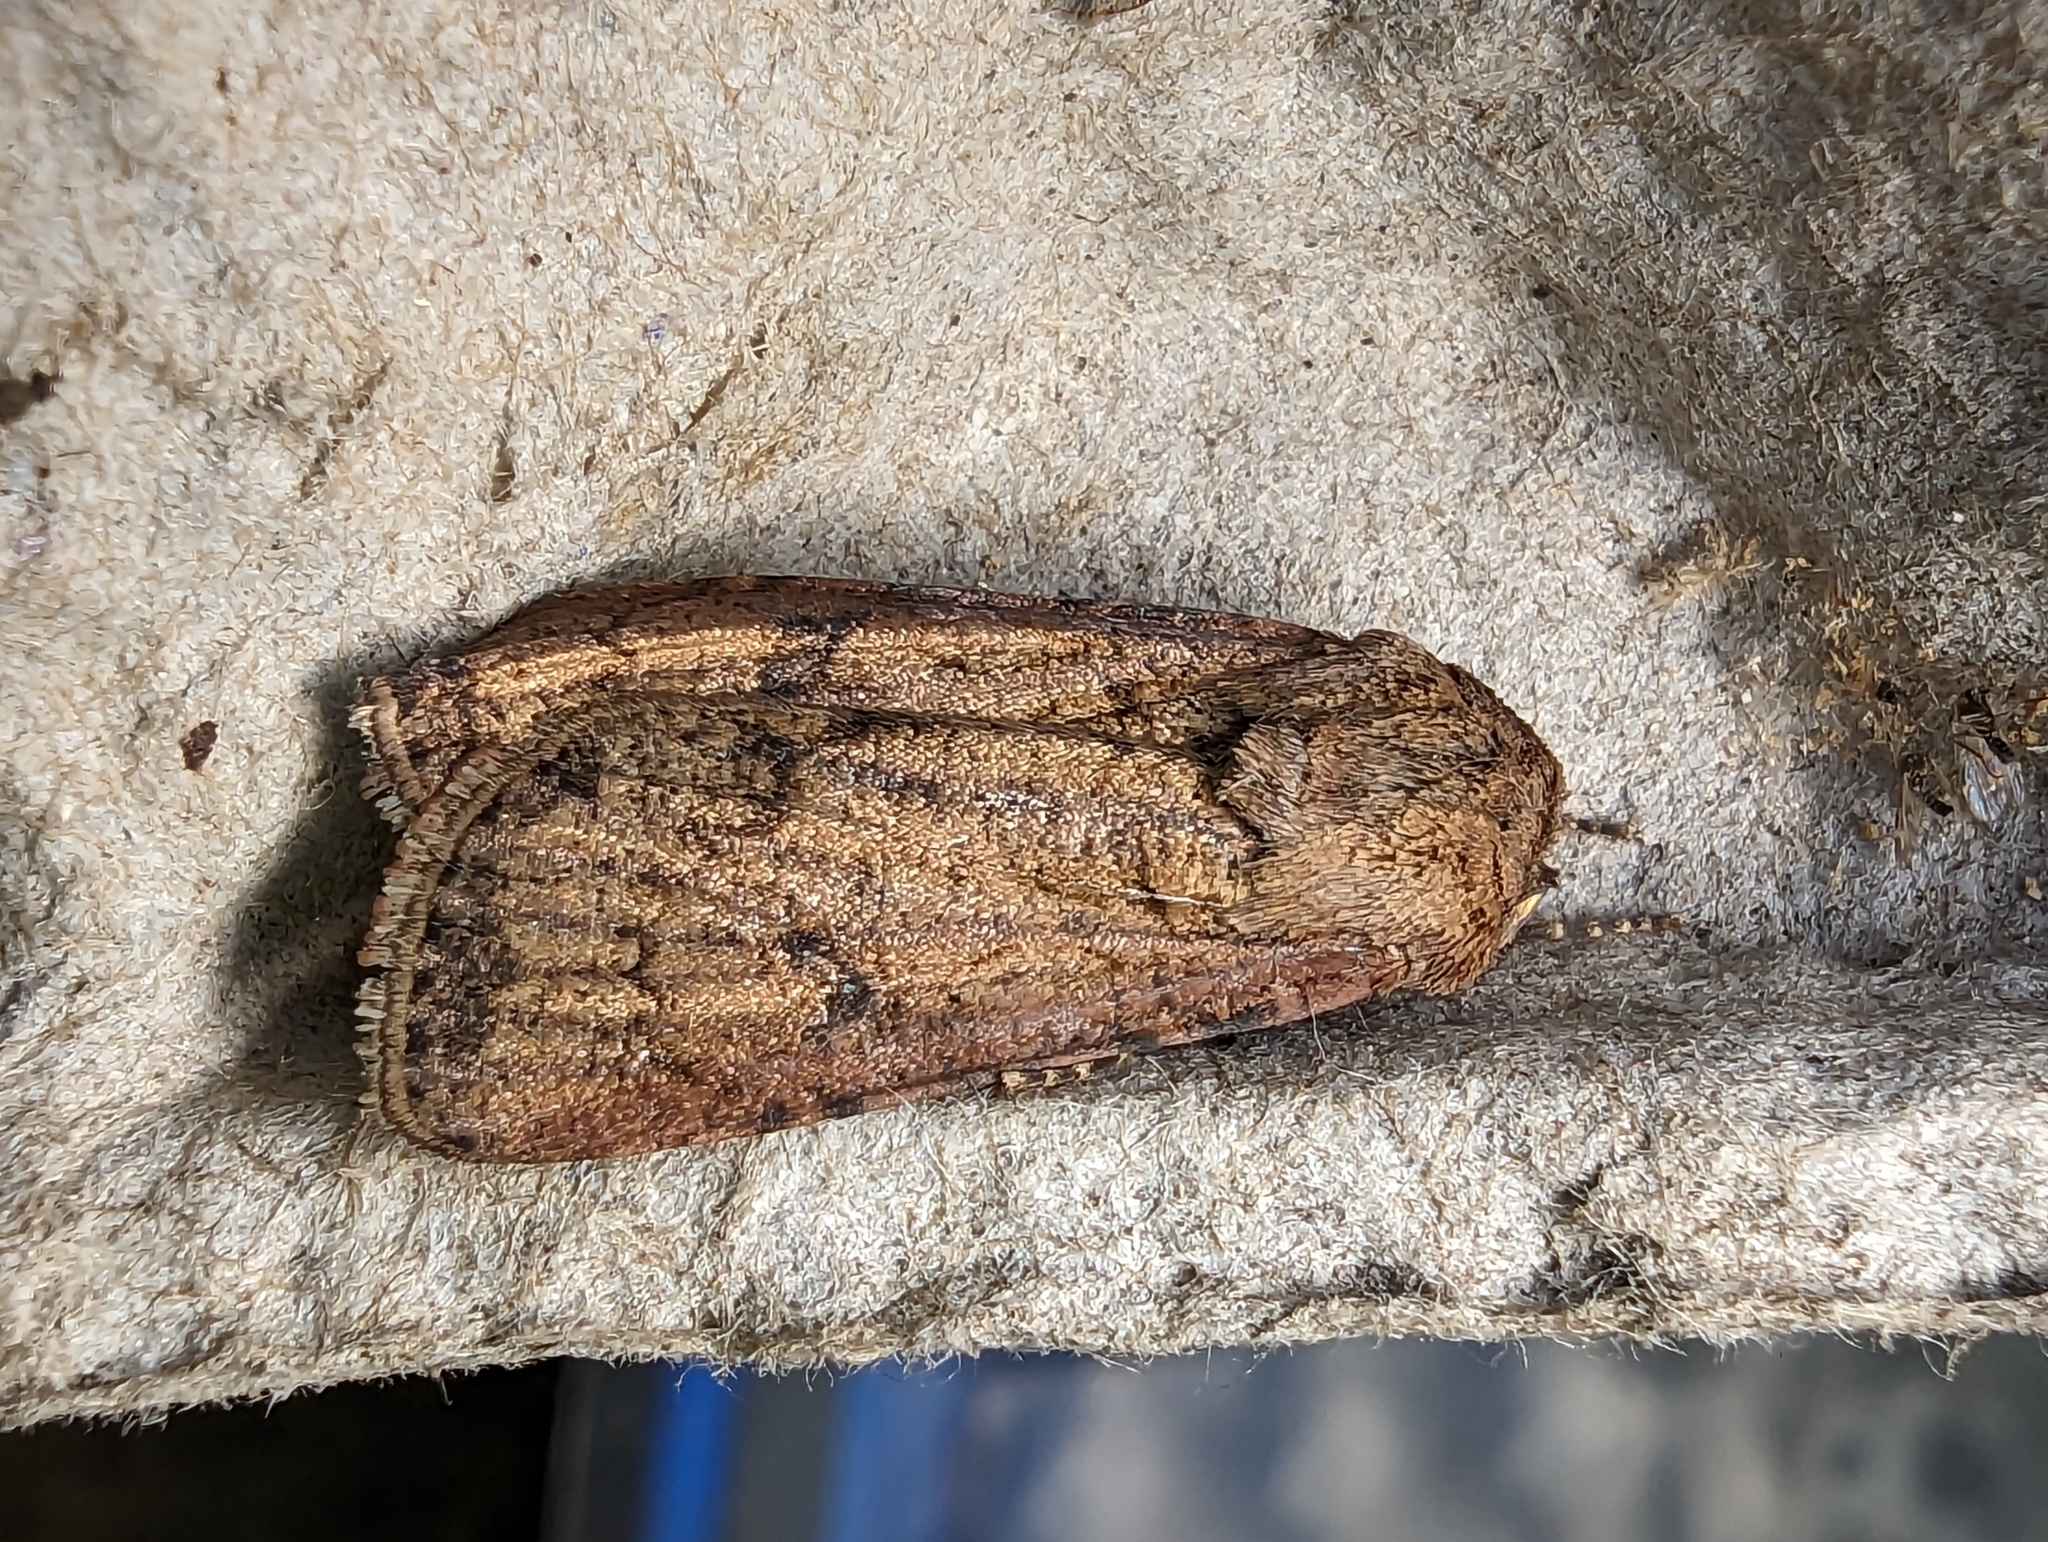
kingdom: Animalia
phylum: Arthropoda
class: Insecta
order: Lepidoptera
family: Noctuidae
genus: Agrotis
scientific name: Agrotis segetum
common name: Turnip moth
